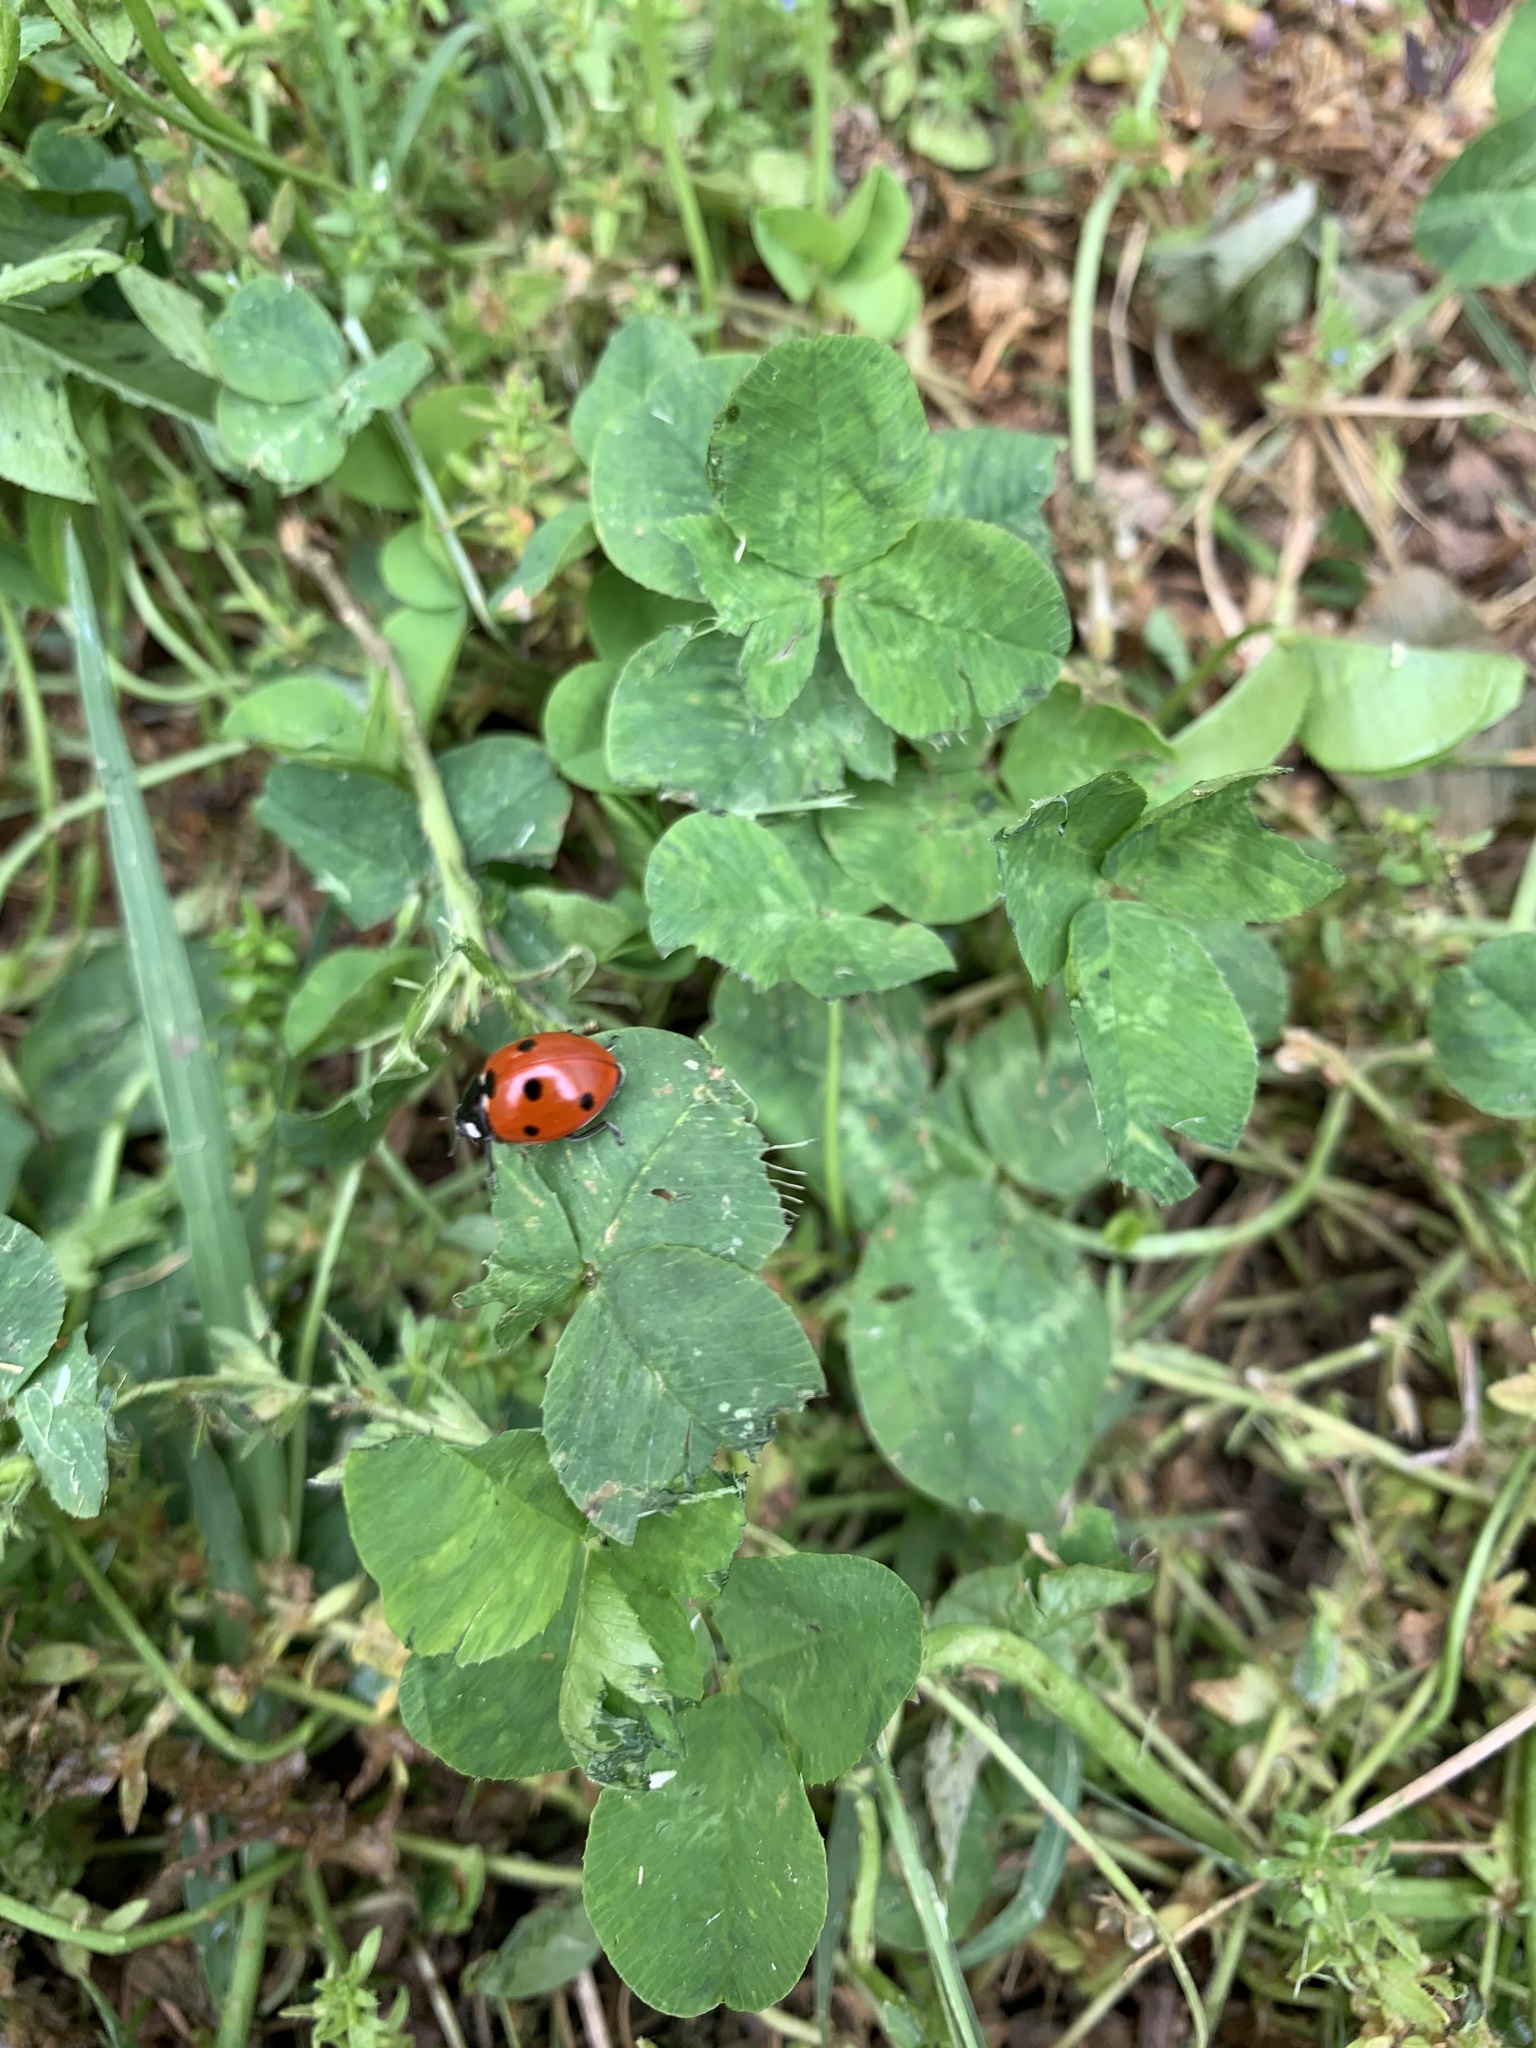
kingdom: Animalia
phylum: Arthropoda
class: Insecta
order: Coleoptera
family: Coccinellidae
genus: Coccinella
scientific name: Coccinella septempunctata
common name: Sevenspotted lady beetle
